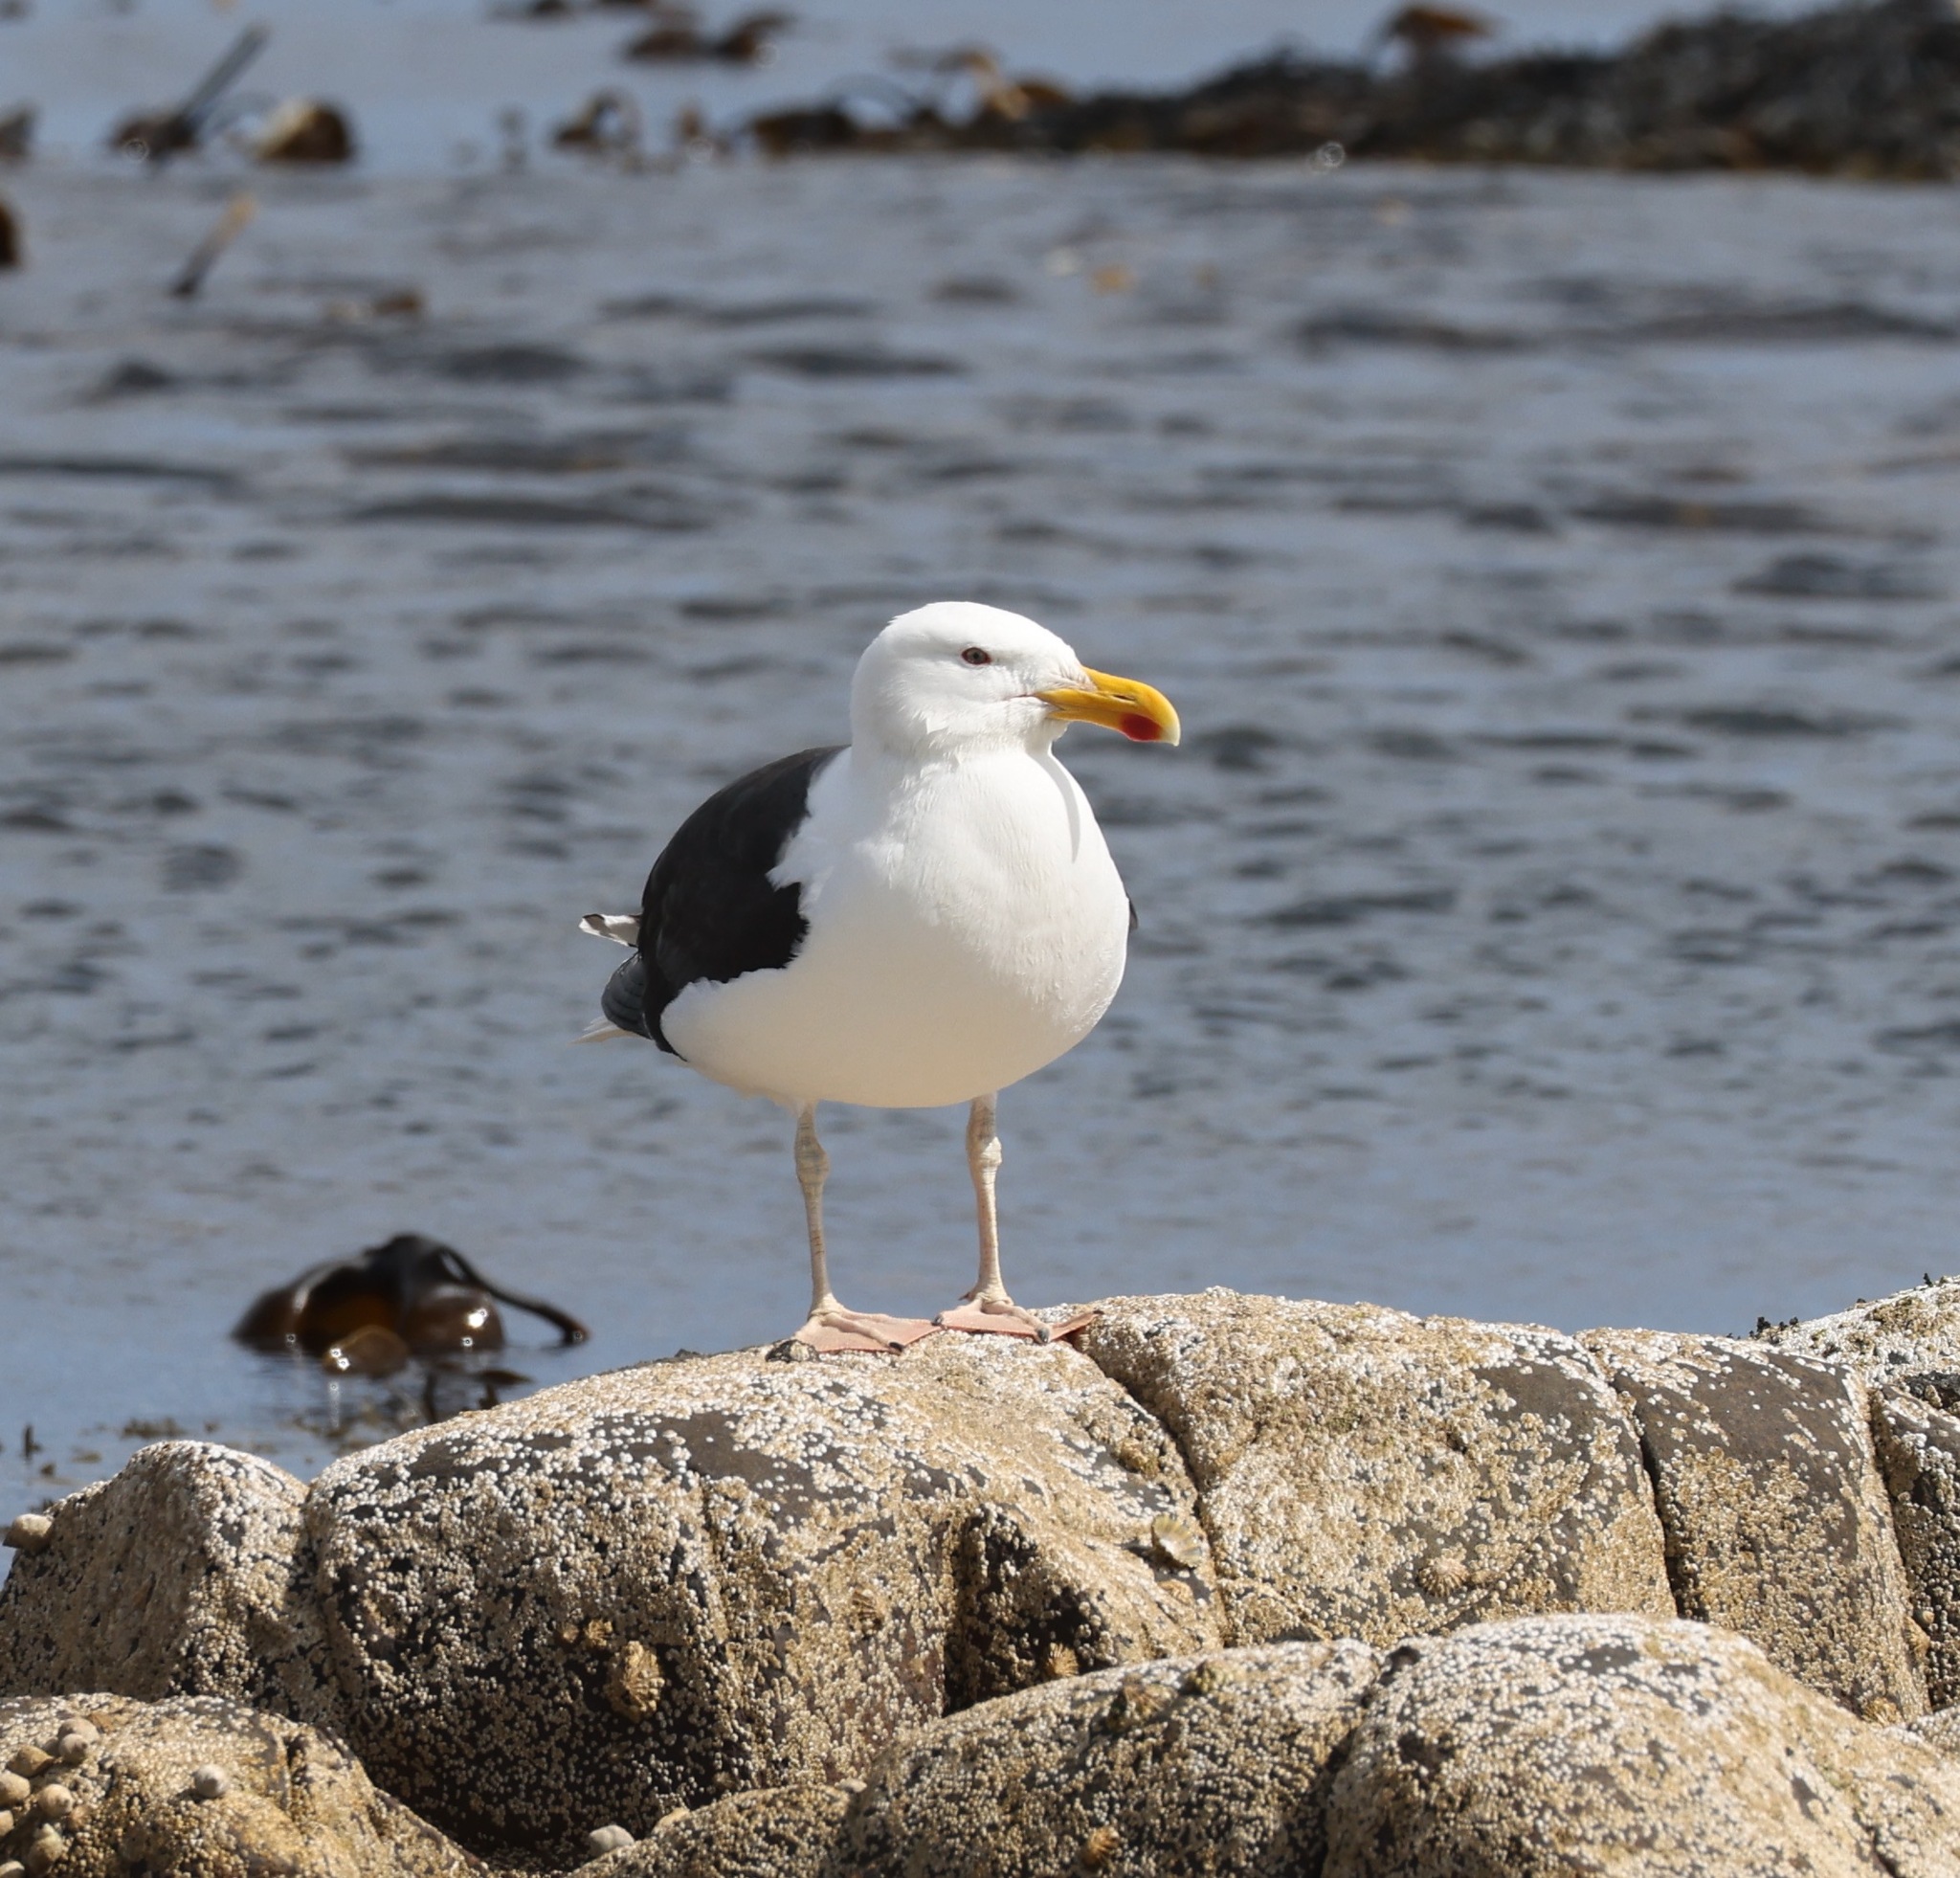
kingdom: Animalia
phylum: Chordata
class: Aves
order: Charadriiformes
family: Laridae
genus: Larus
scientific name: Larus marinus
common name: Great black-backed gull
